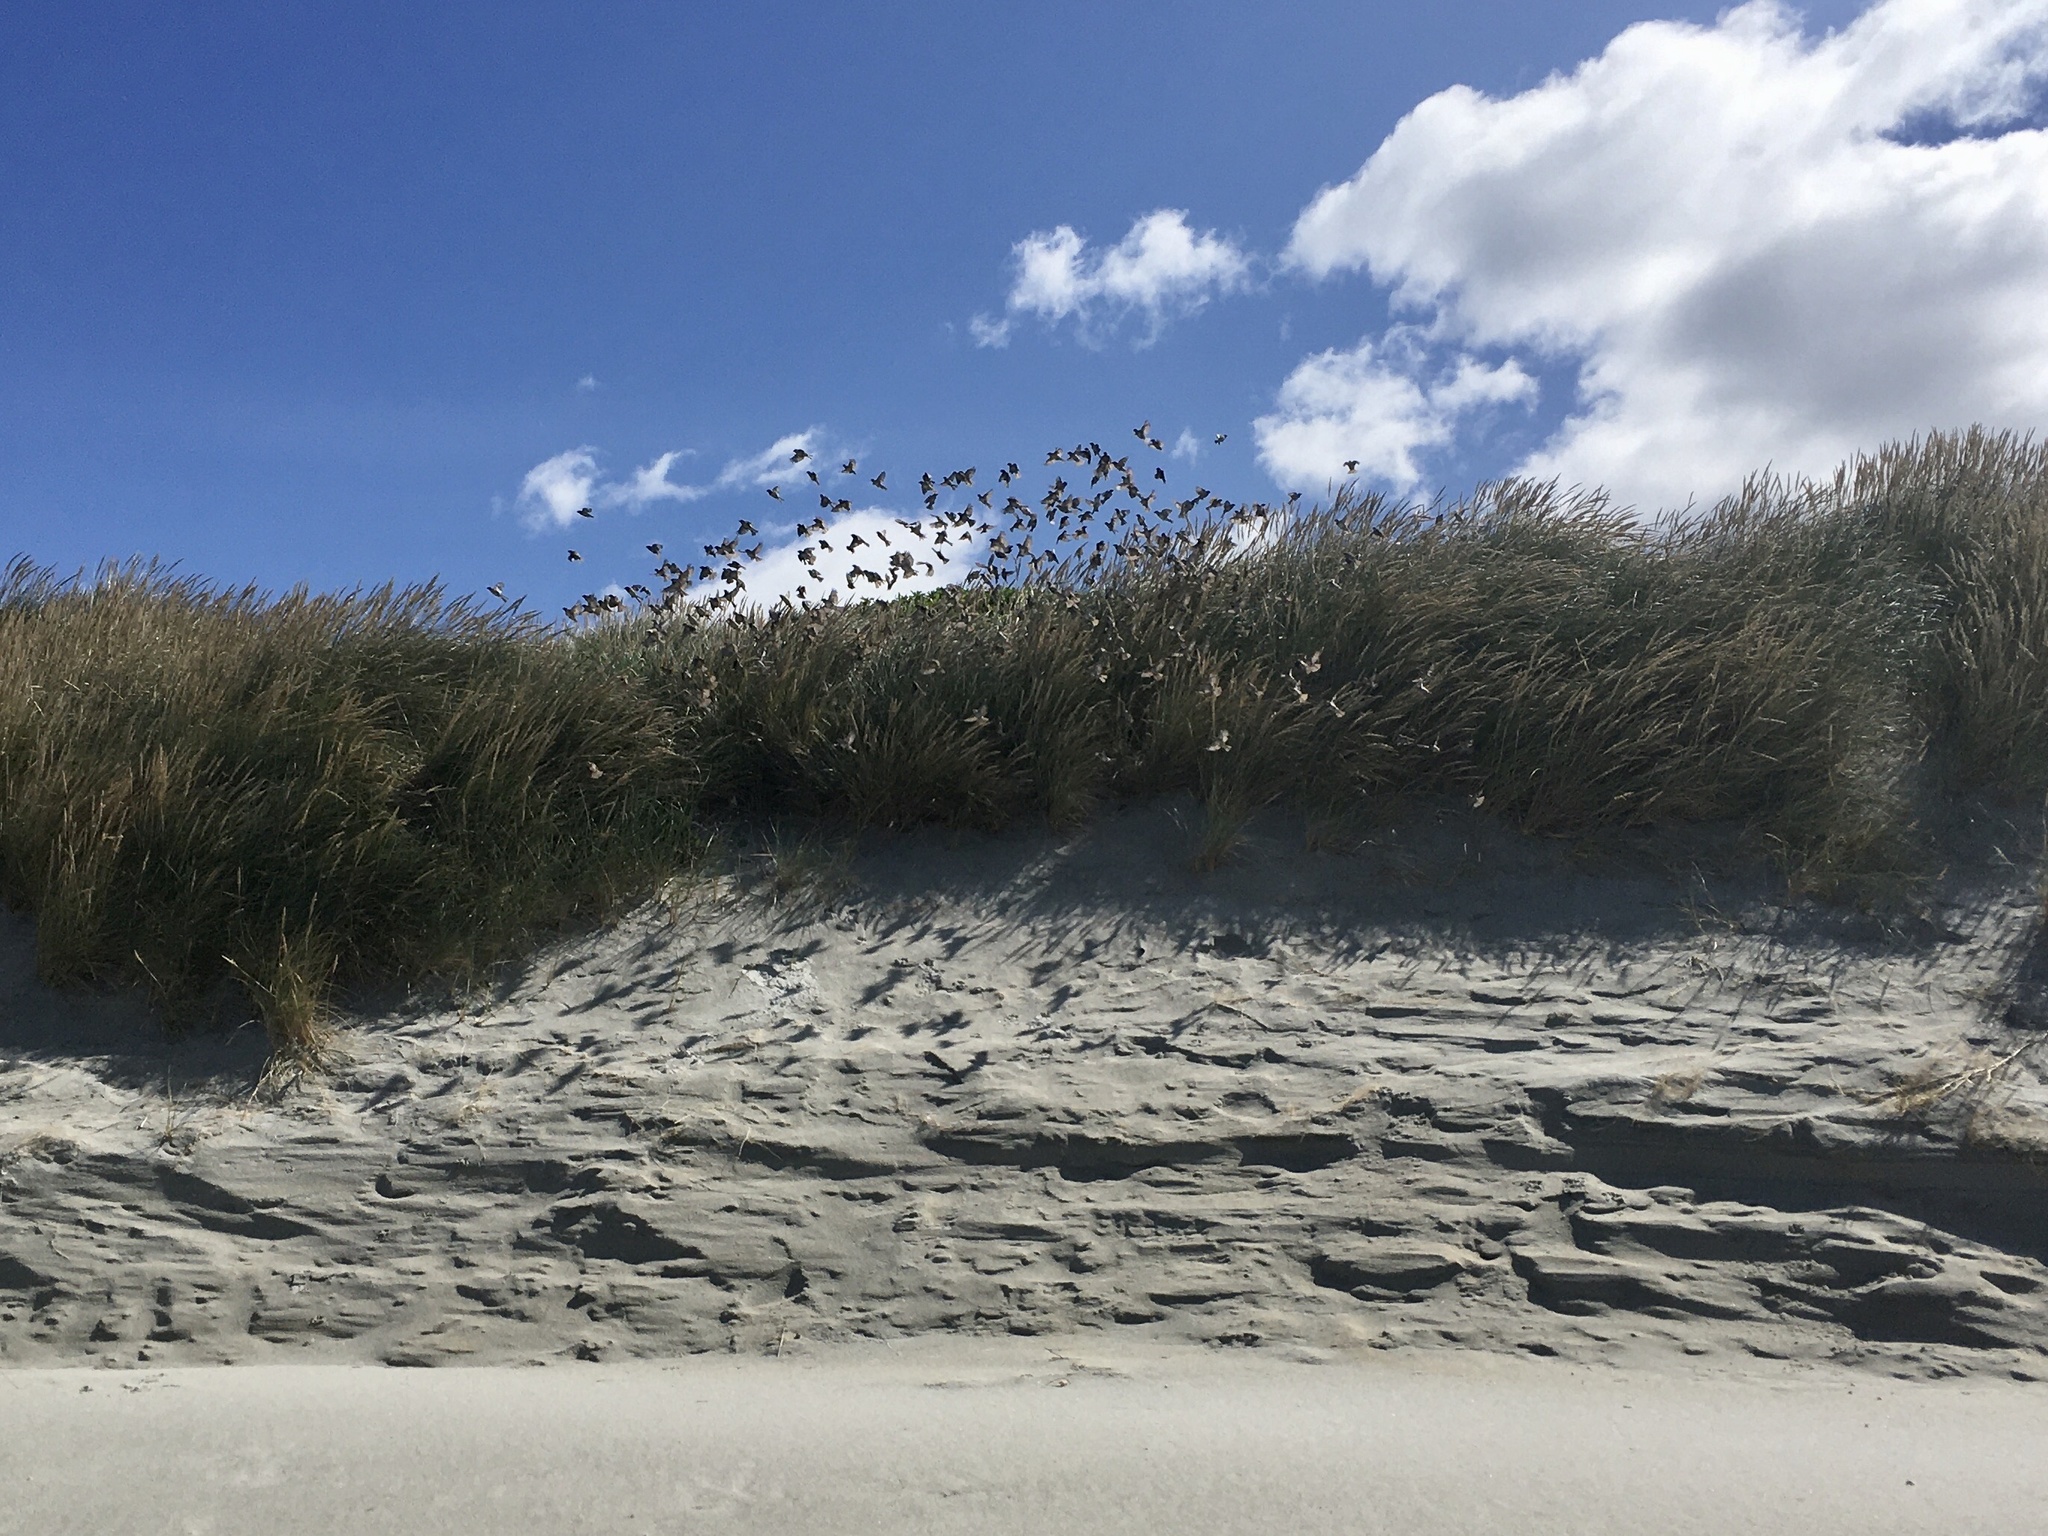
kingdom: Animalia
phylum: Chordata
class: Aves
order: Passeriformes
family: Passeridae
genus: Passer
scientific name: Passer domesticus
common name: House sparrow
